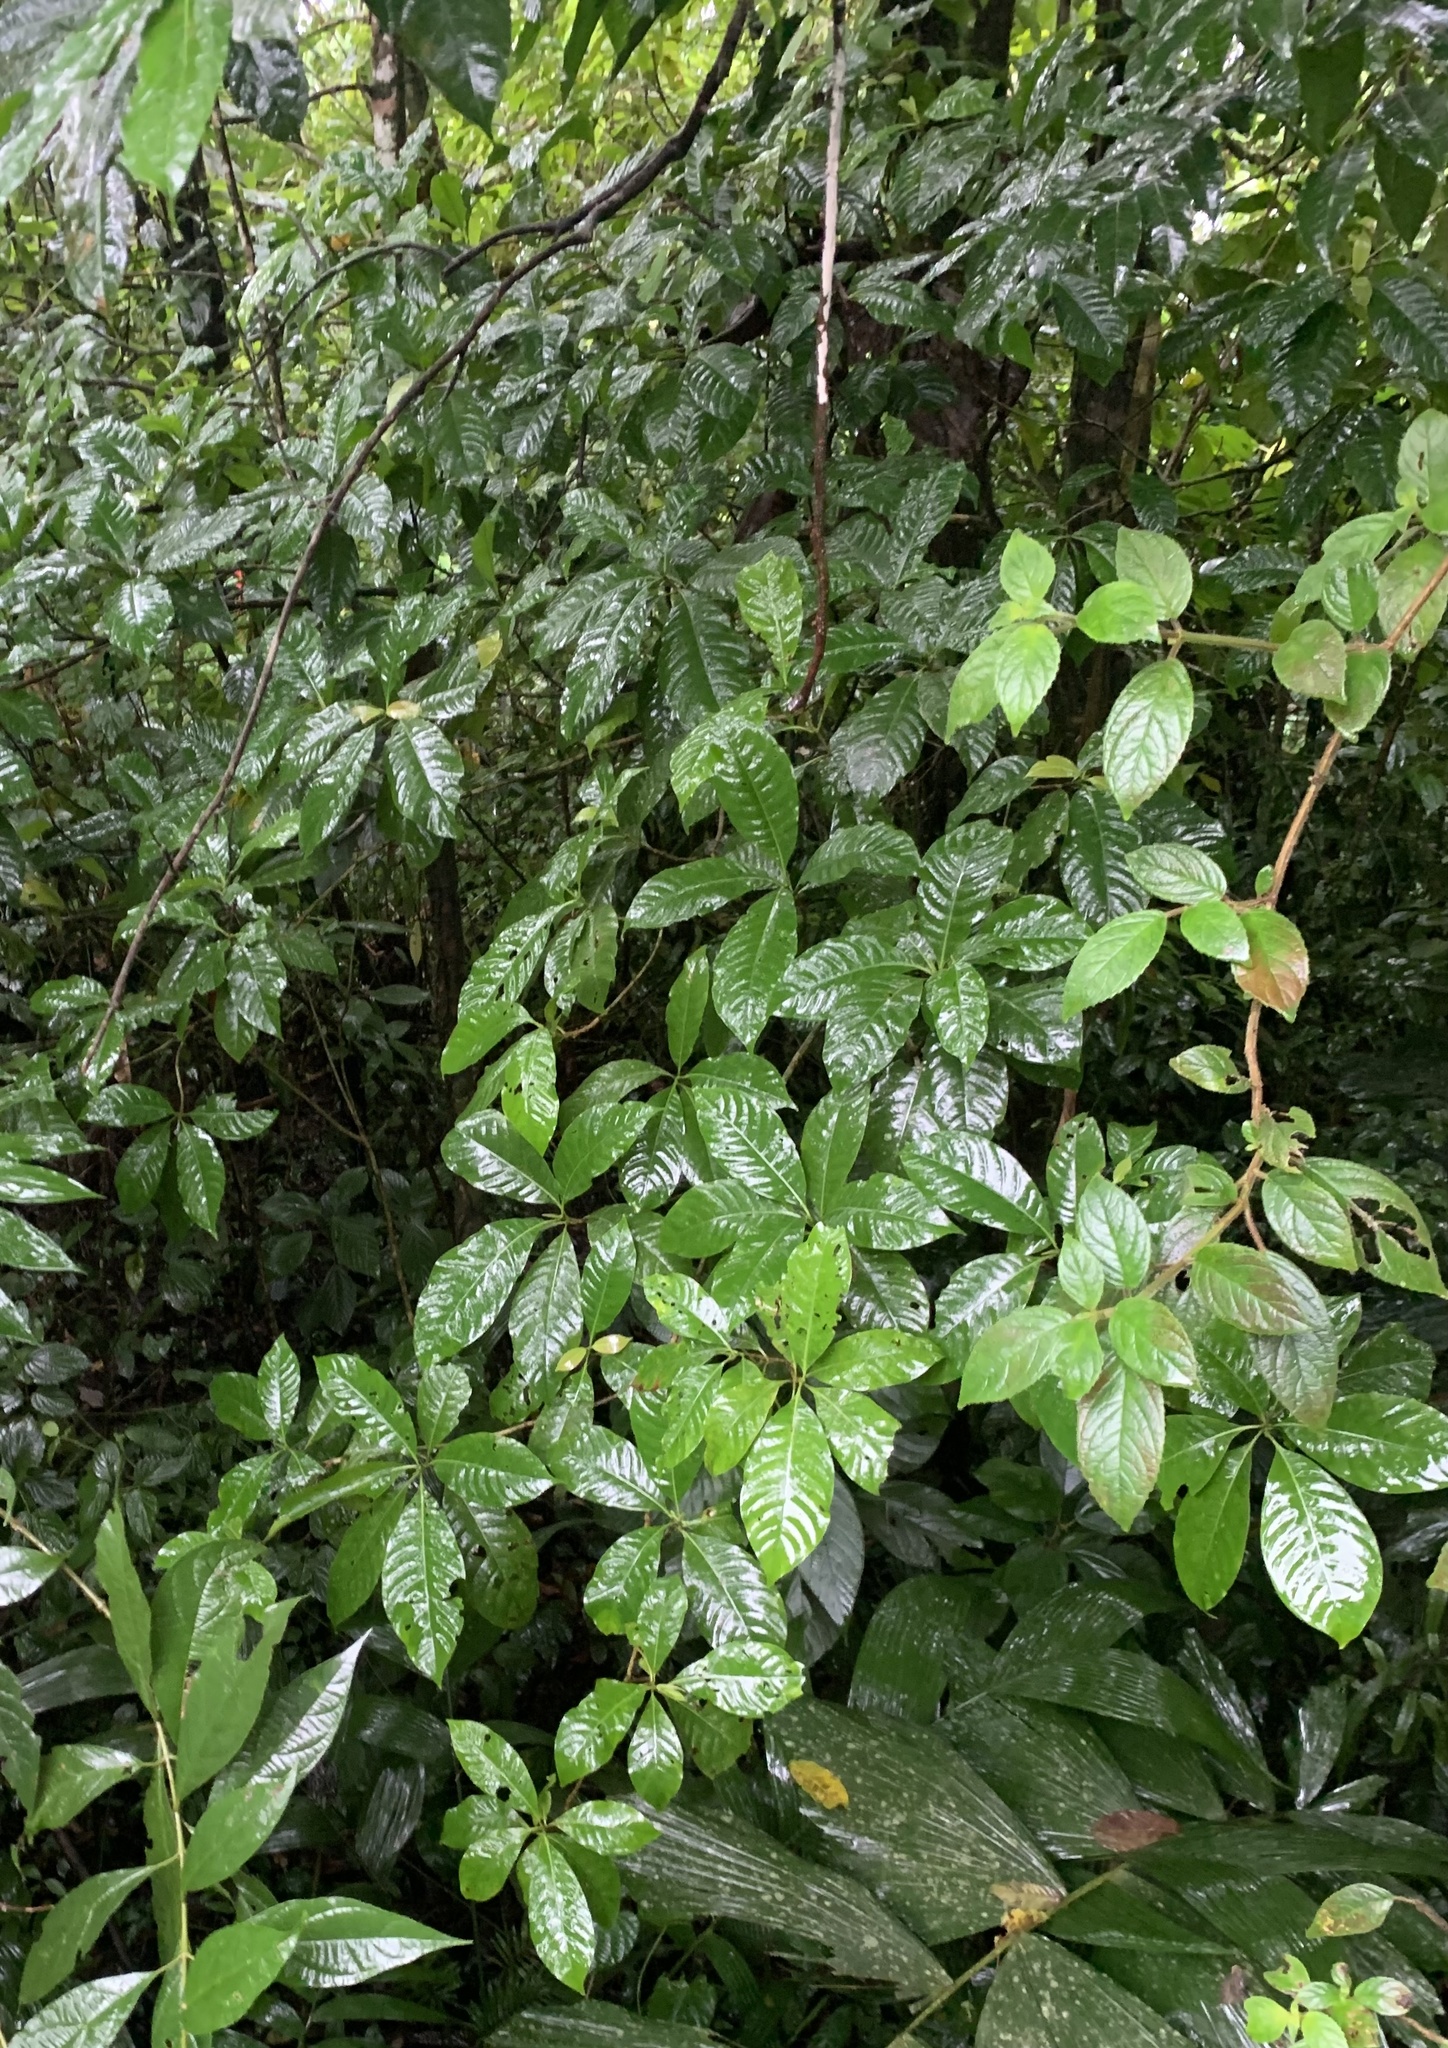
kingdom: Plantae
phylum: Tracheophyta
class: Magnoliopsida
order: Gentianales
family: Rubiaceae
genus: Chimarrhis
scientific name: Chimarrhis parviflora
